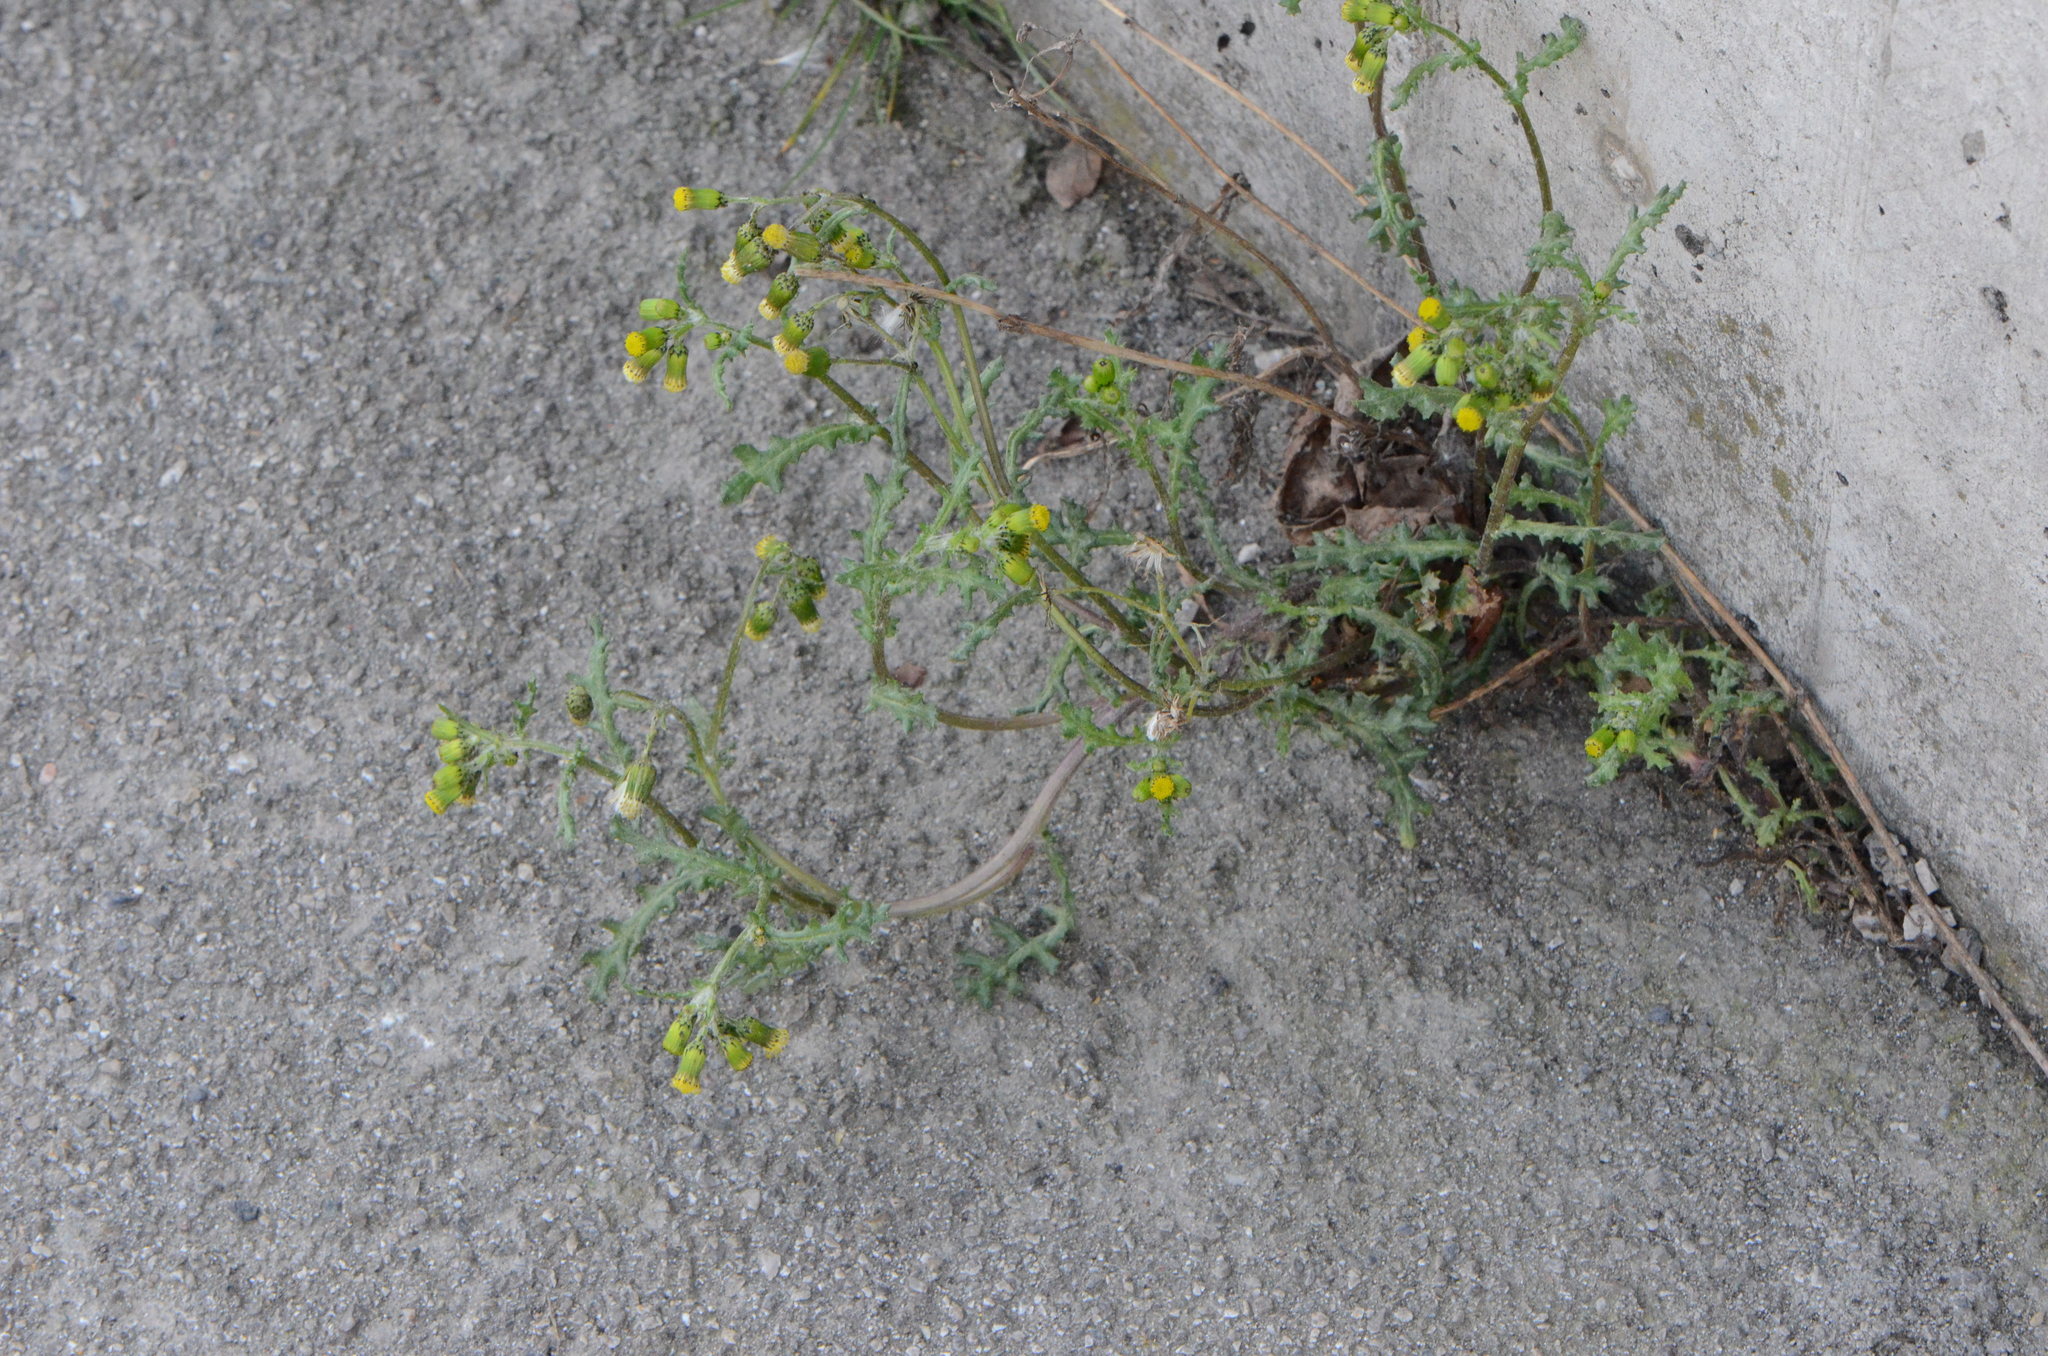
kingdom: Plantae
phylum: Tracheophyta
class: Magnoliopsida
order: Asterales
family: Asteraceae
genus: Senecio
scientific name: Senecio vulgaris
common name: Old-man-in-the-spring
